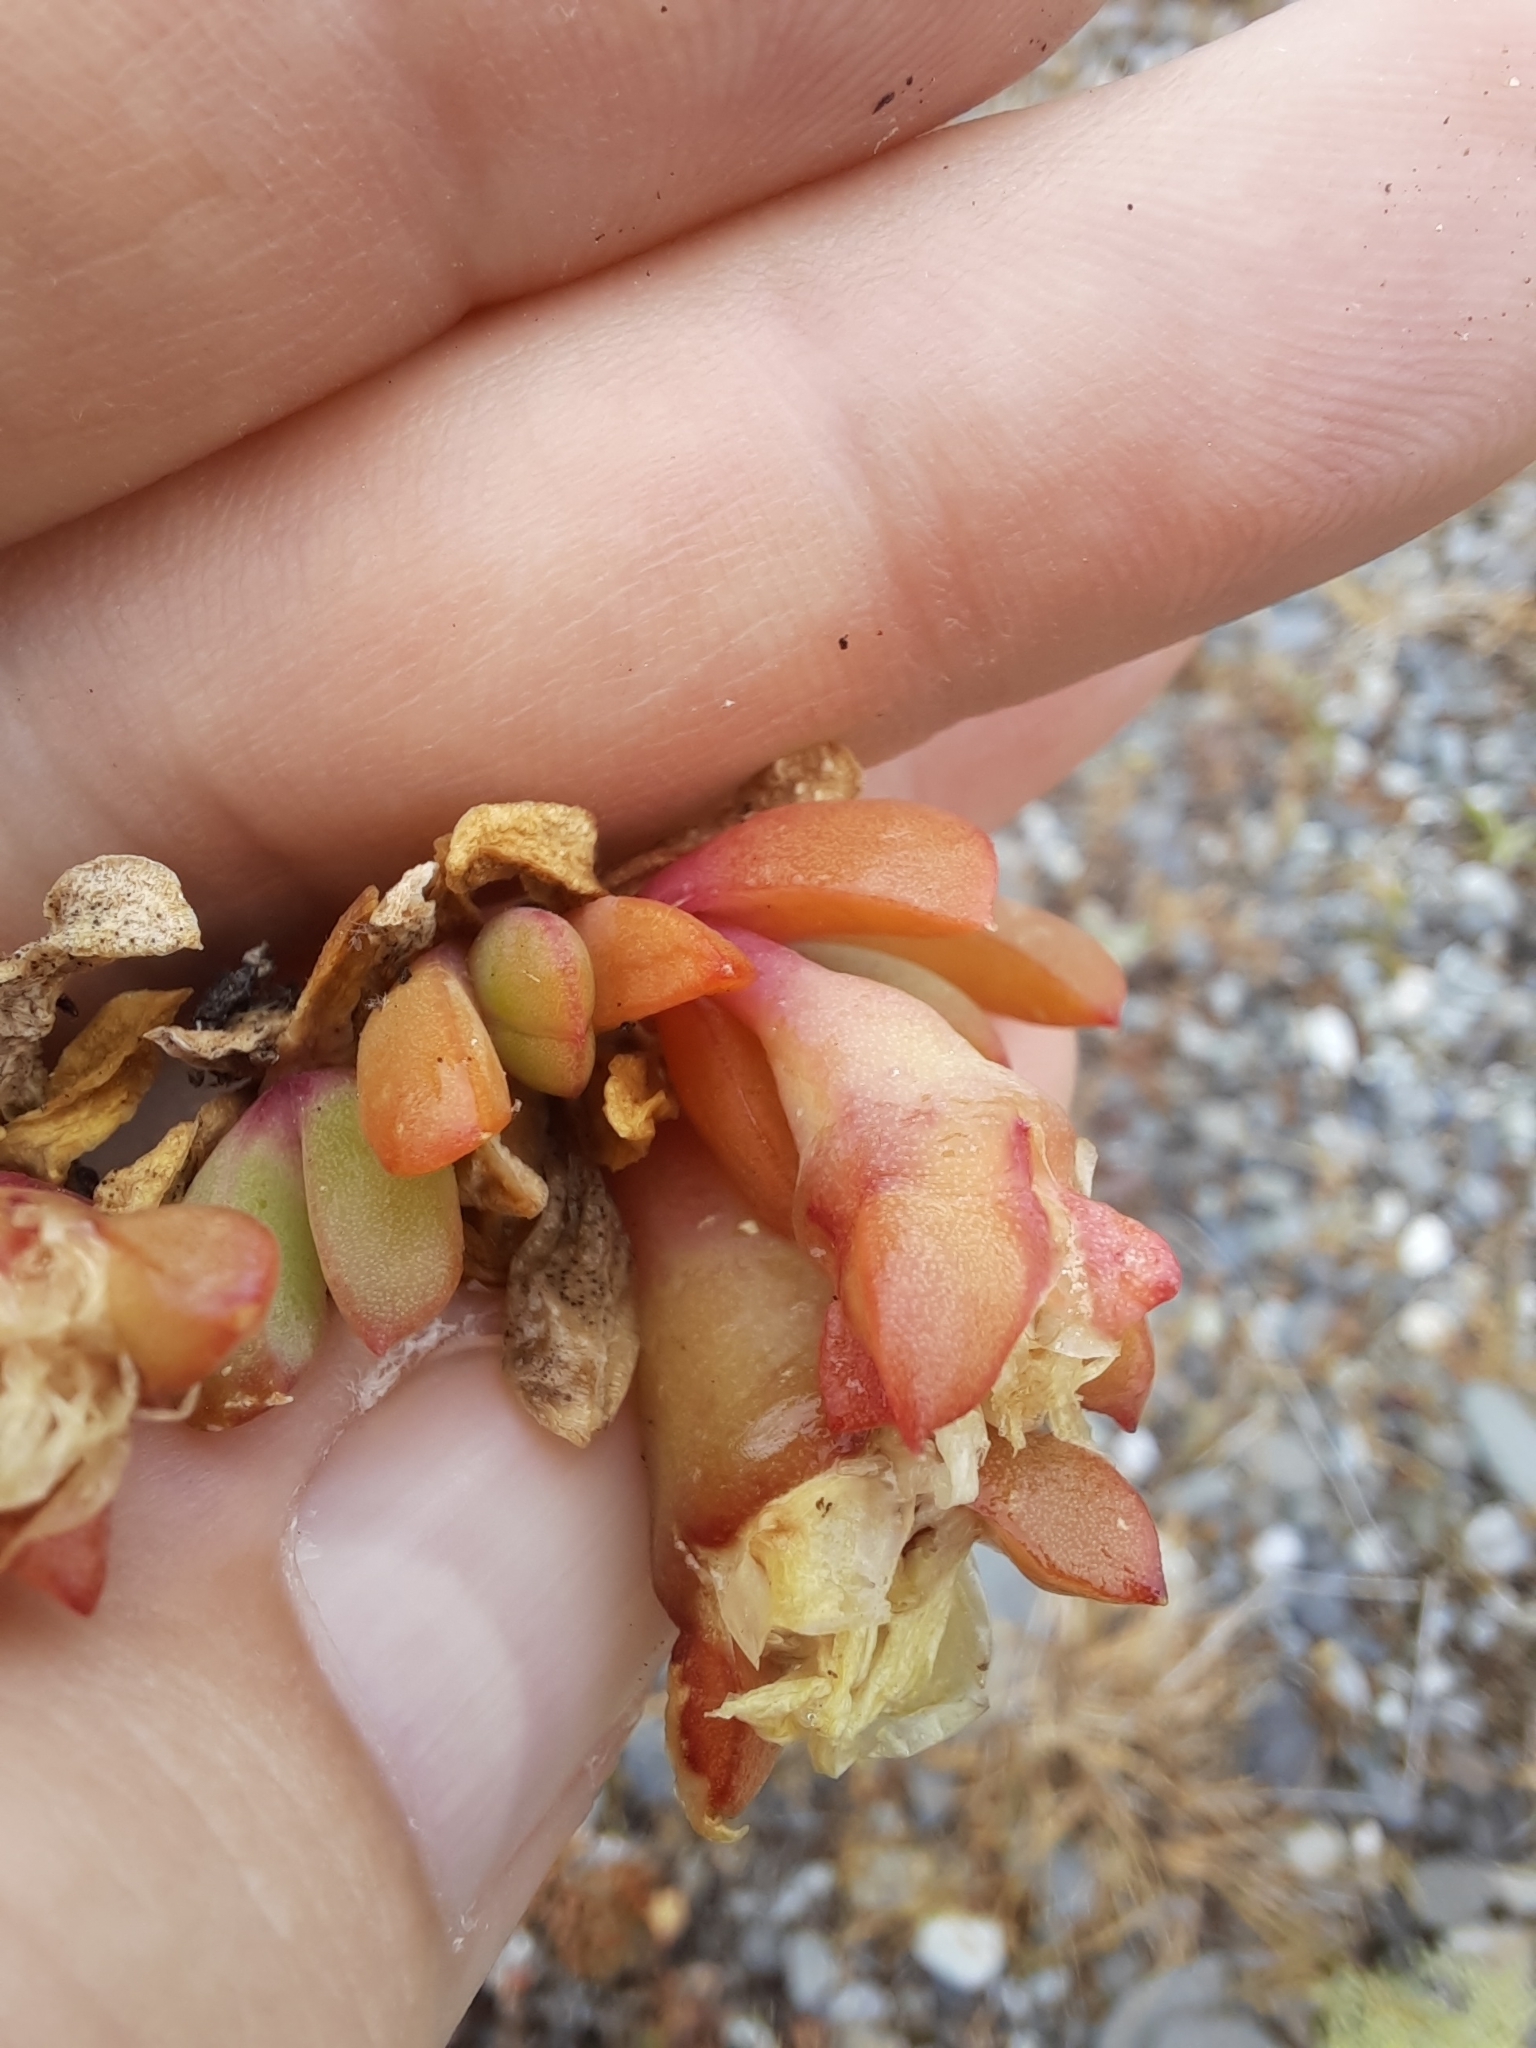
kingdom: Plantae
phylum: Tracheophyta
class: Magnoliopsida
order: Caryophyllales
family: Aizoaceae
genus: Disphyma
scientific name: Disphyma australe
